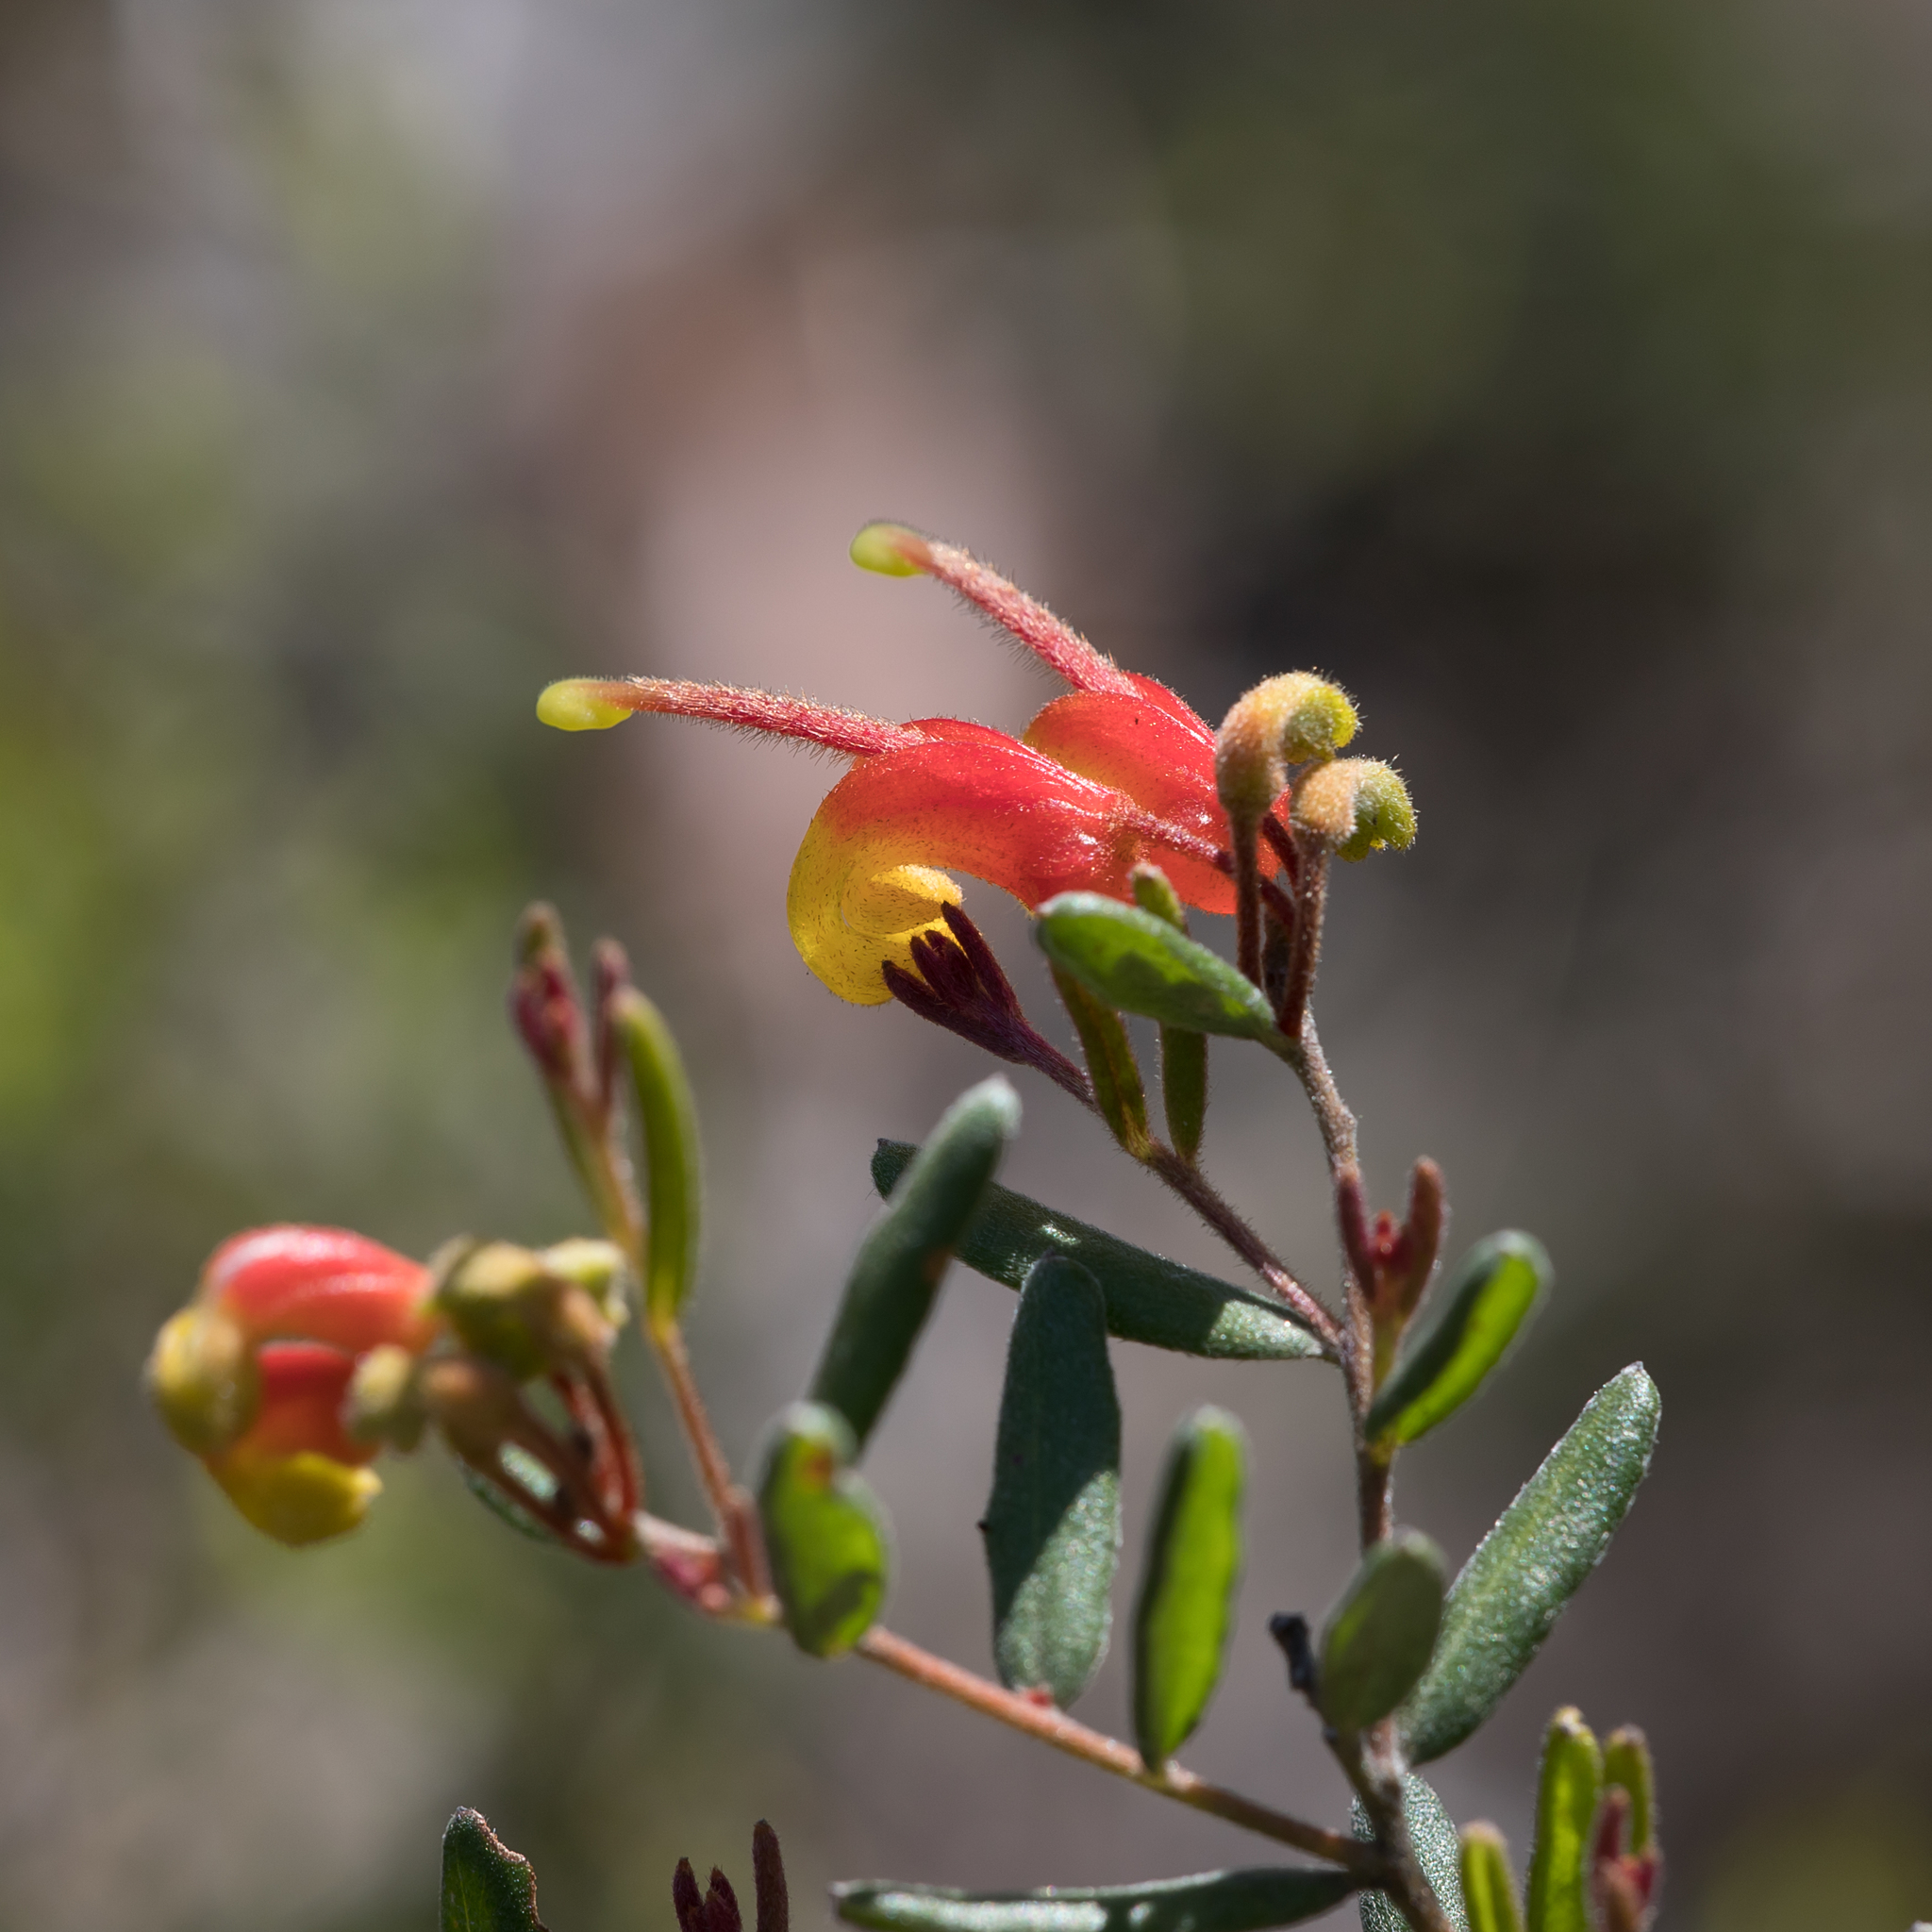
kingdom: Plantae
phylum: Tracheophyta
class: Magnoliopsida
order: Proteales
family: Proteaceae
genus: Grevillea
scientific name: Grevillea alpina
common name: Catclaws grevillea
